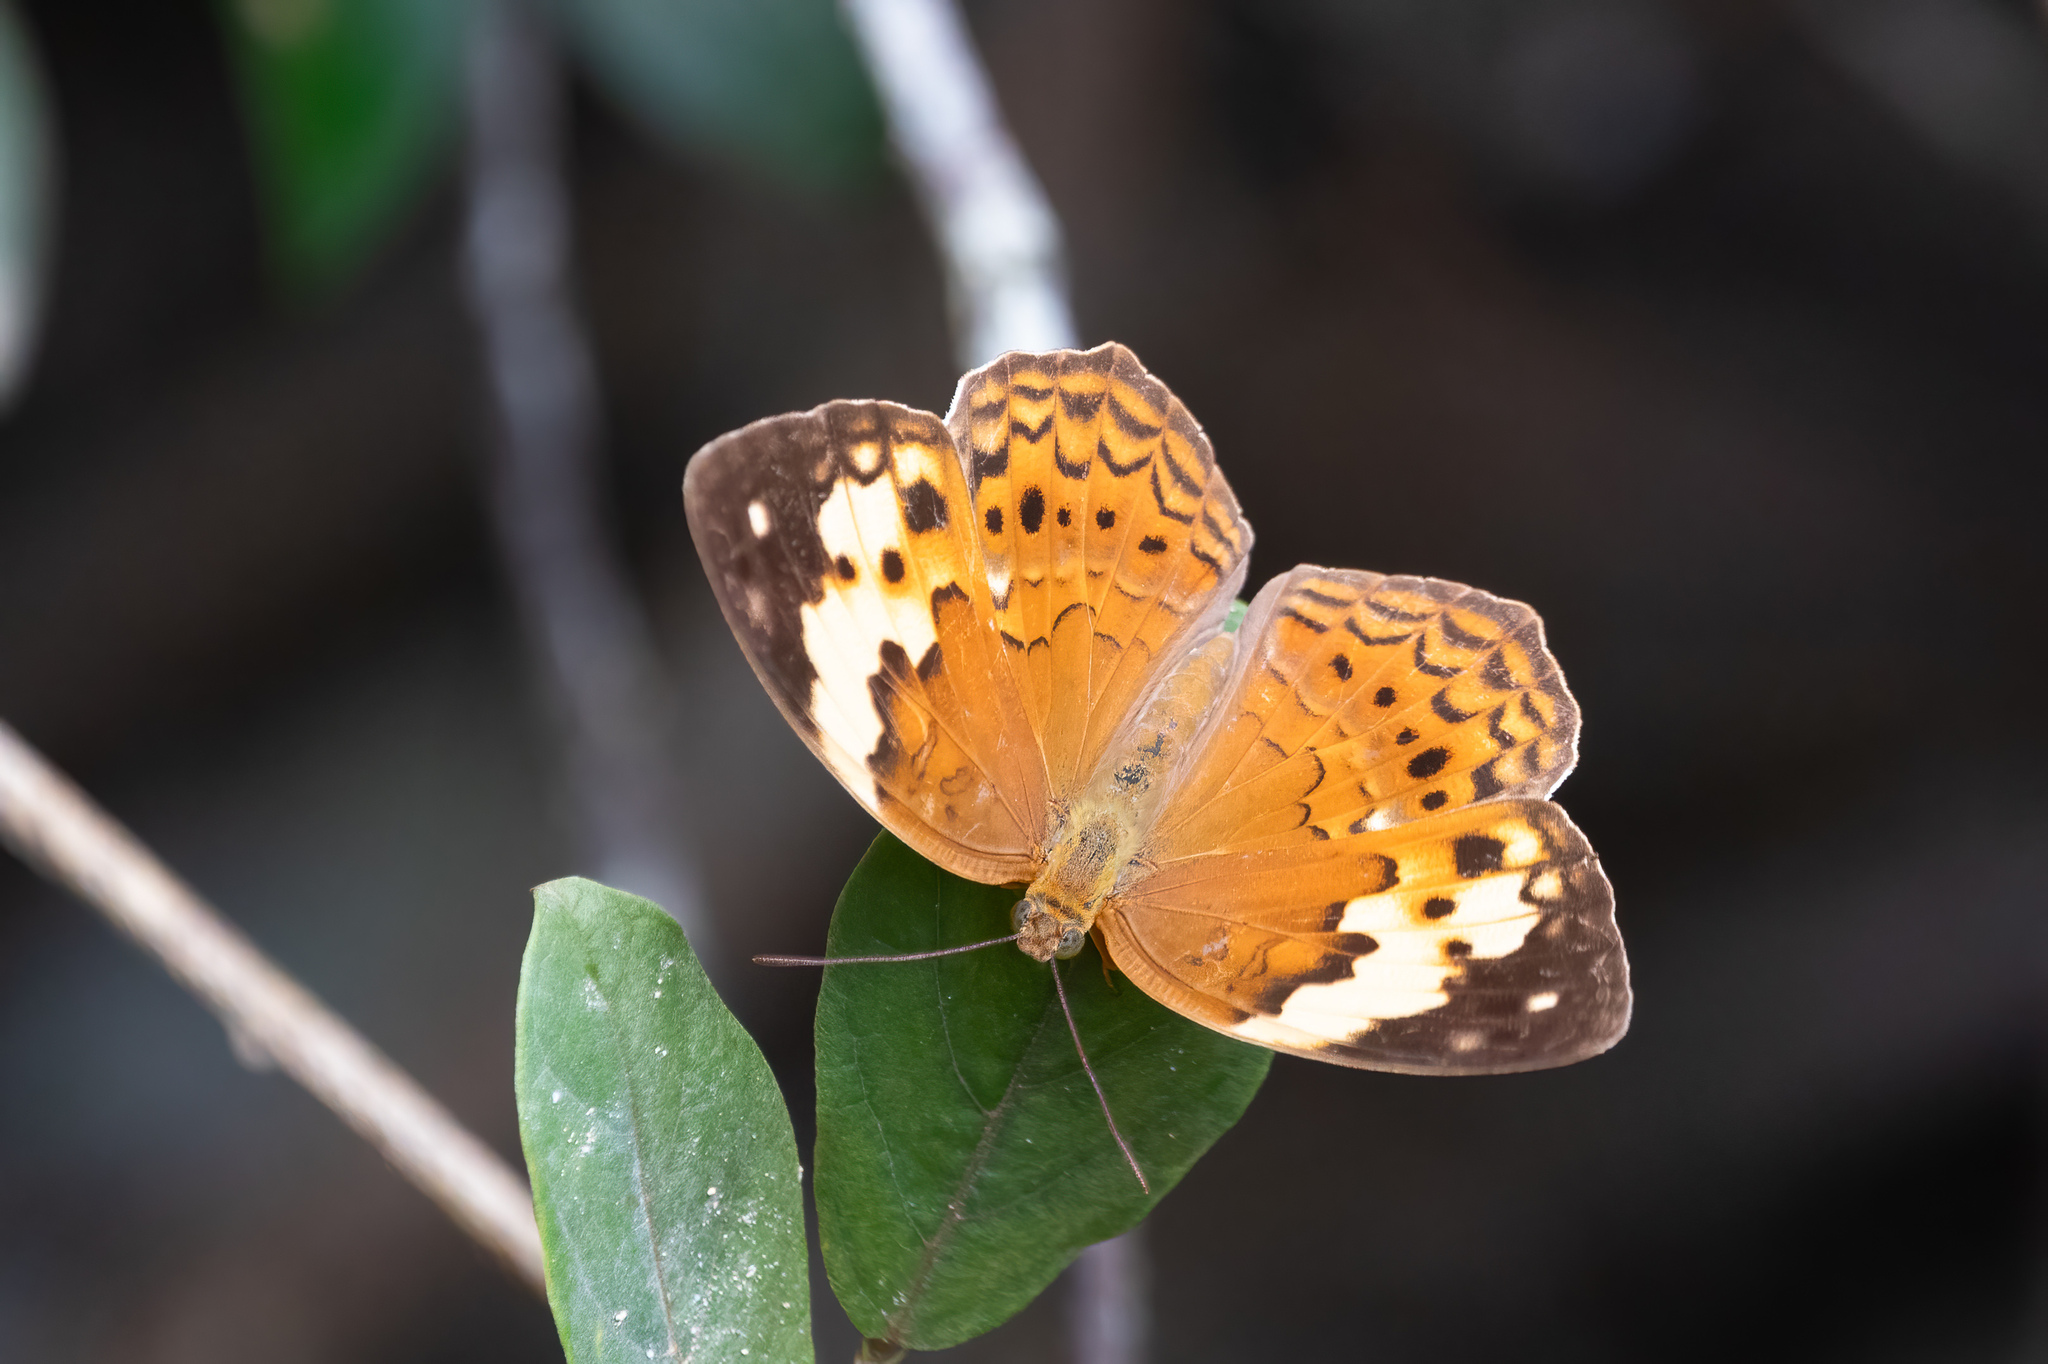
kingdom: Animalia
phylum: Arthropoda
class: Insecta
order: Lepidoptera
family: Nymphalidae
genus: Cupha
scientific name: Cupha erymanthis
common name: Rustic
